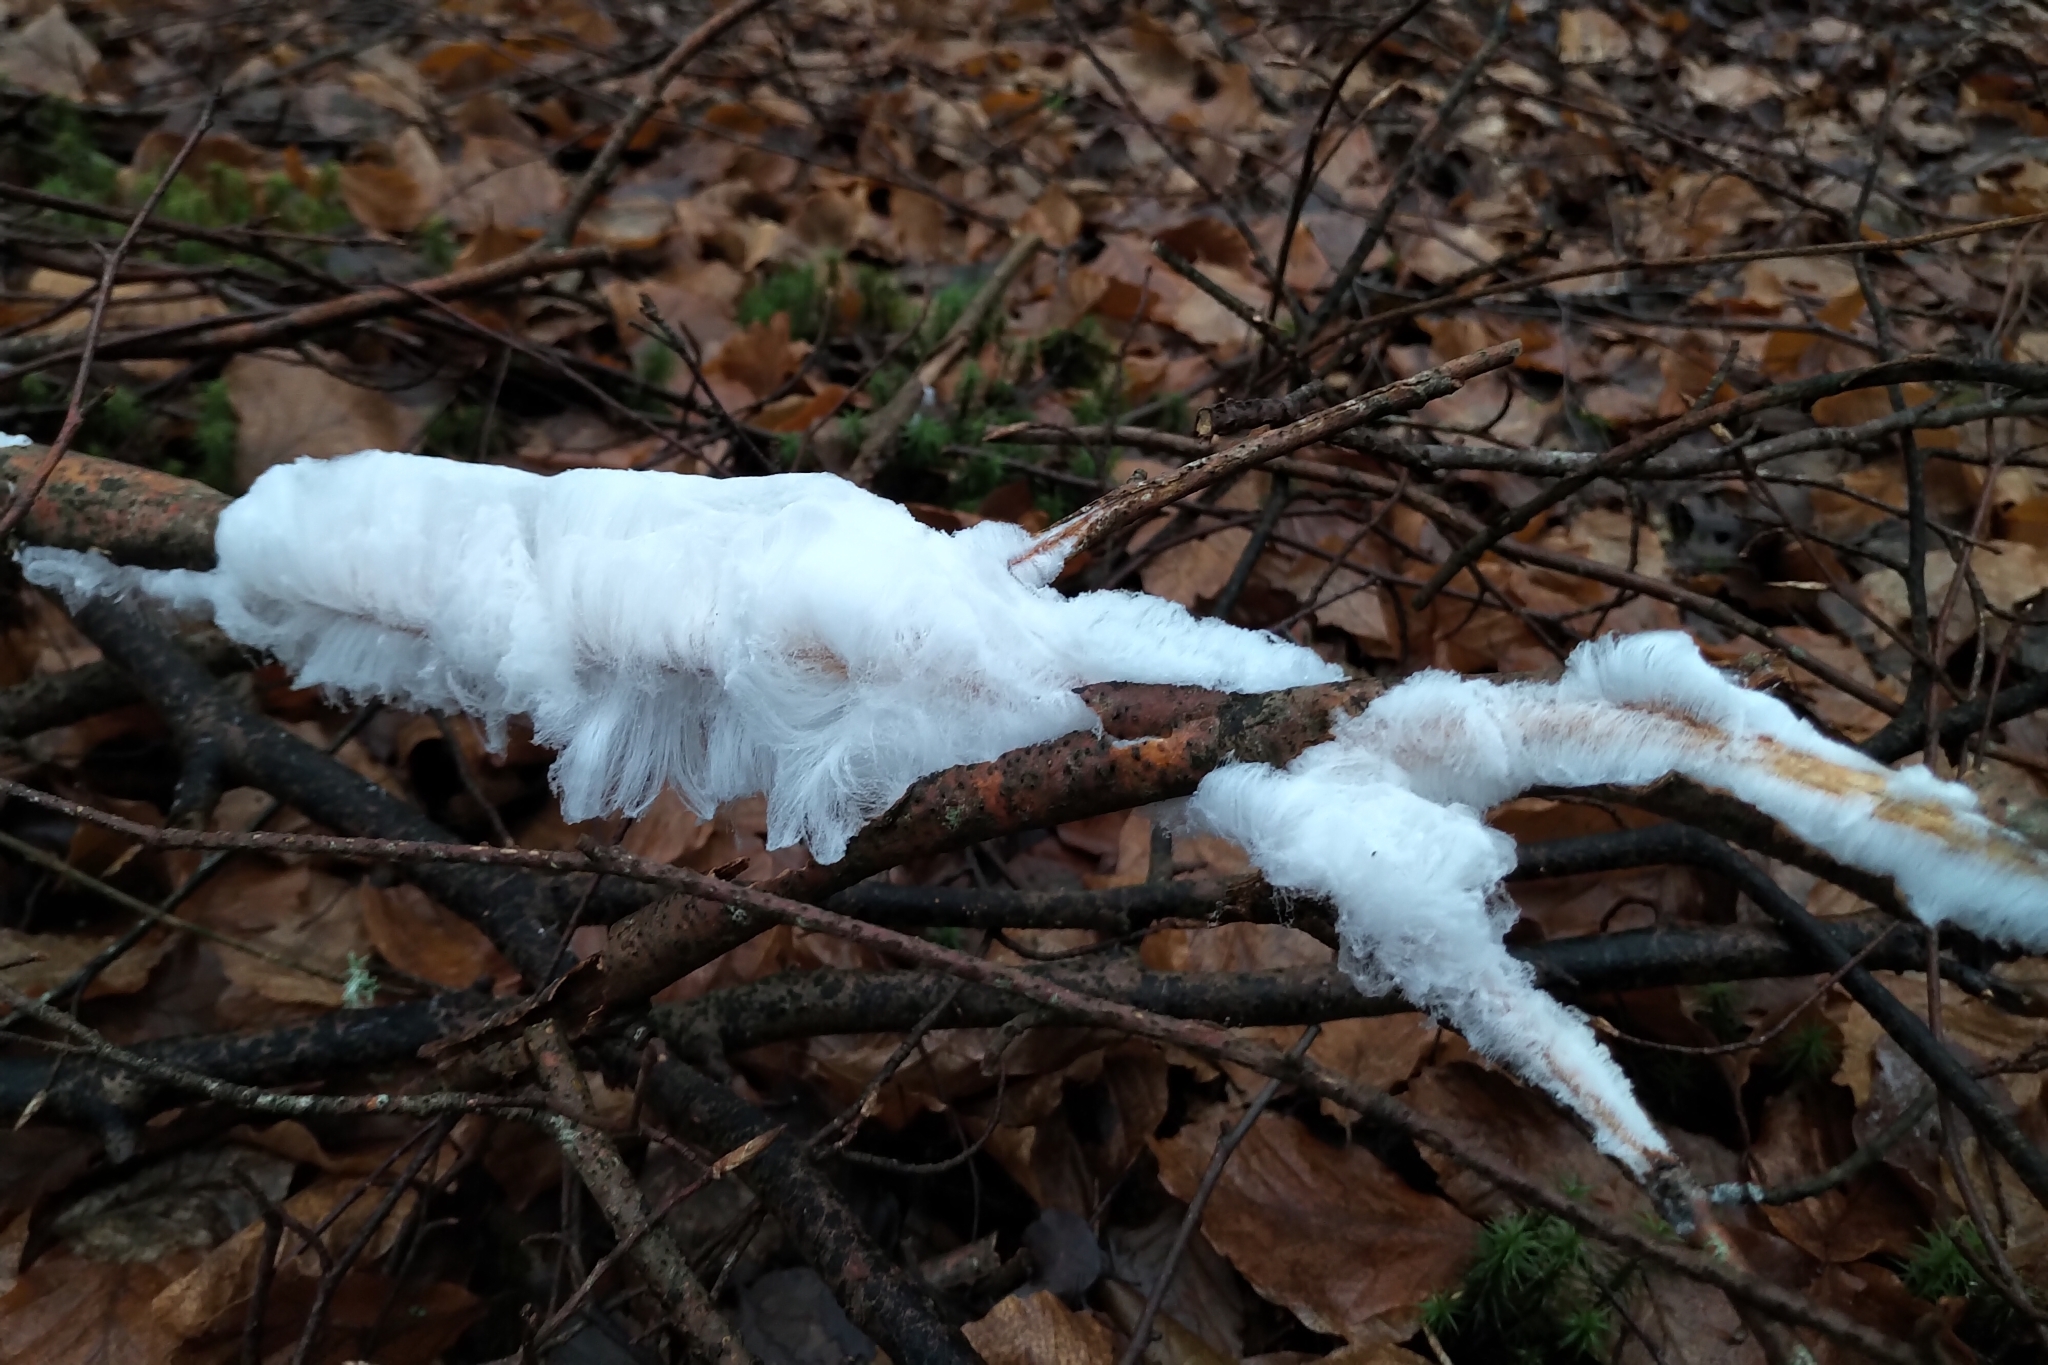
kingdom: Fungi
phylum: Basidiomycota
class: Agaricomycetes
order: Auriculariales
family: Auriculariaceae
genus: Exidiopsis
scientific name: Exidiopsis effusa
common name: Hair ice crust
